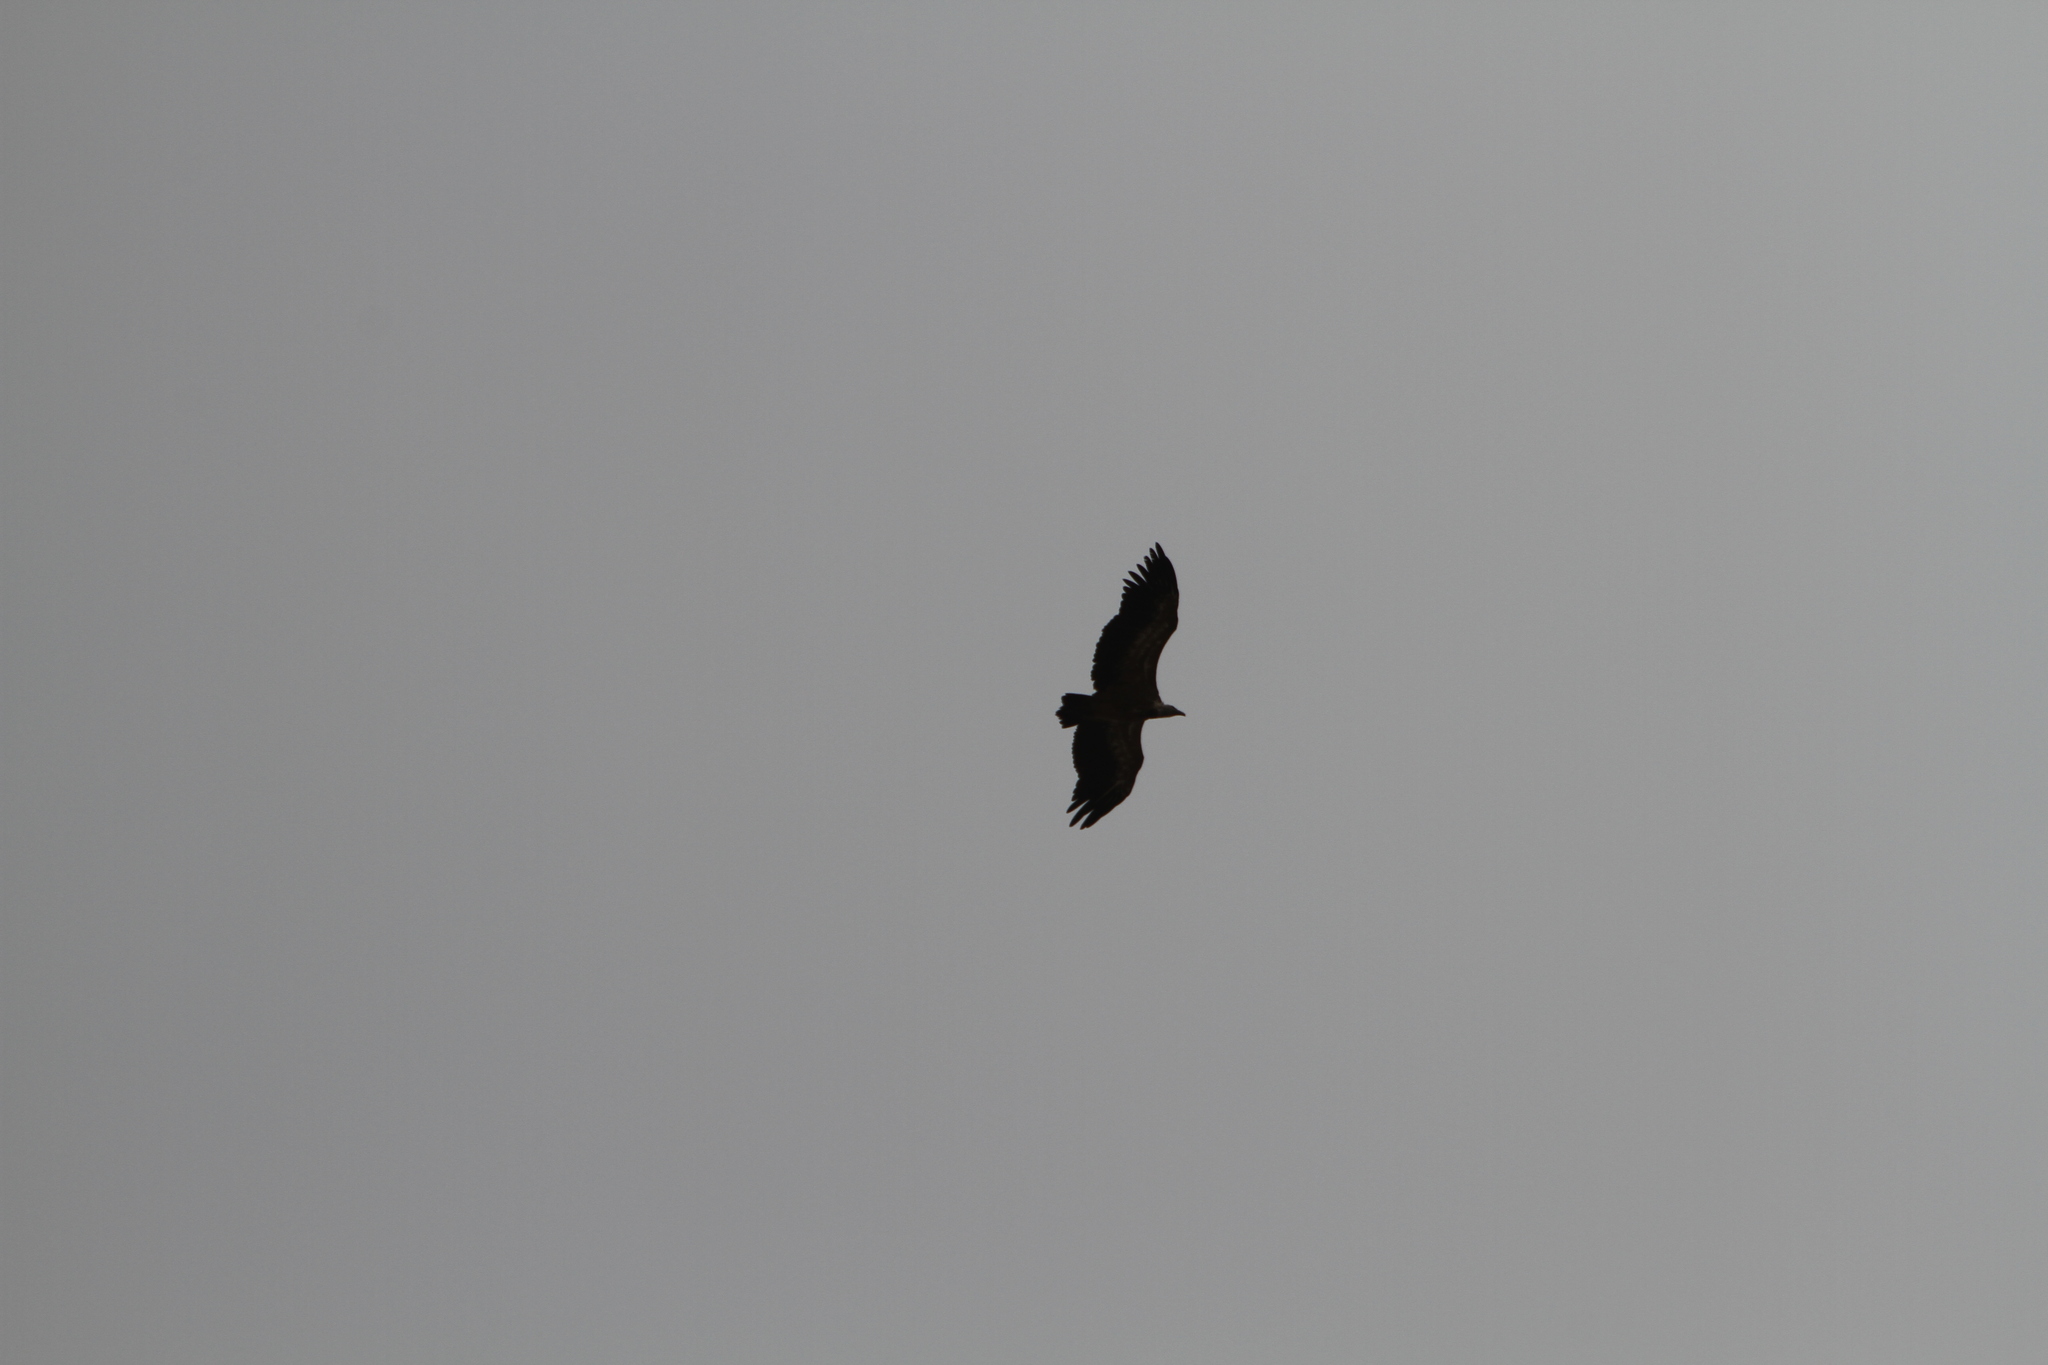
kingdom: Animalia
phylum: Chordata
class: Aves
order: Accipitriformes
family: Accipitridae
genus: Gyps
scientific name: Gyps fulvus
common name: Griffon vulture
